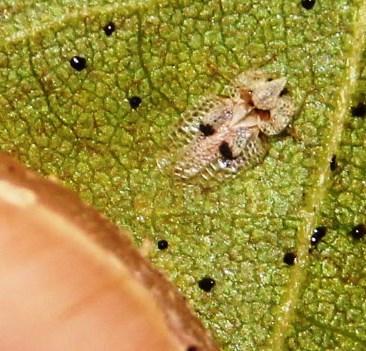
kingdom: Animalia
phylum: Arthropoda
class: Insecta
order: Hemiptera
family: Tingidae
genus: Corythucha
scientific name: Corythucha ciliata
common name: Sycamore lace bug
